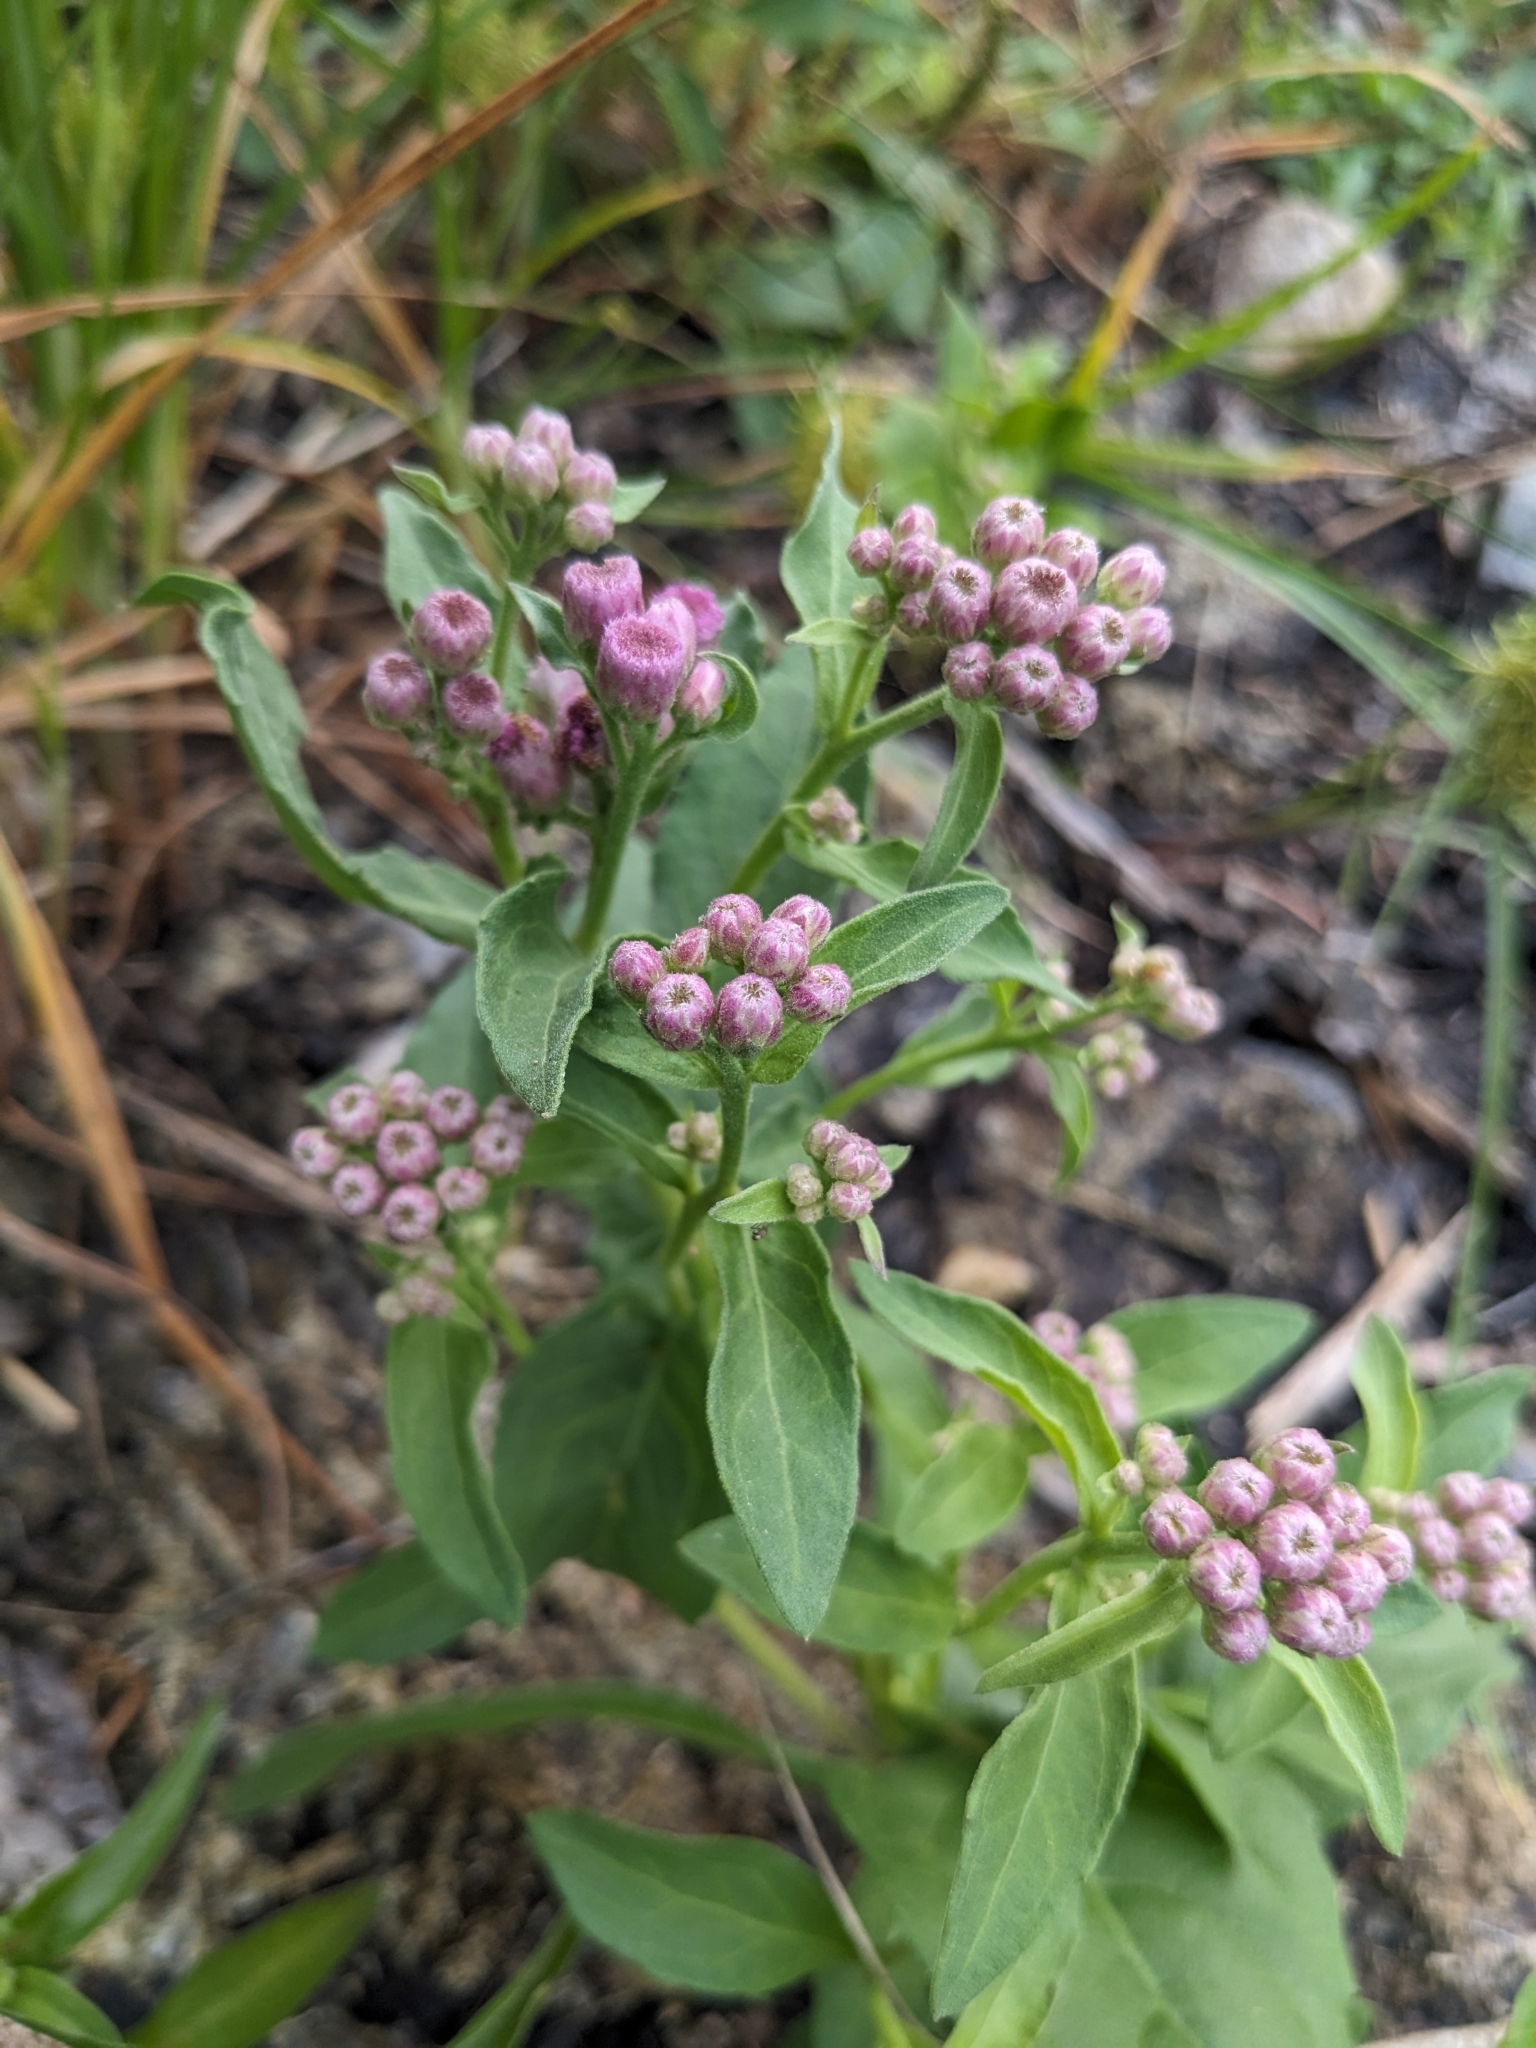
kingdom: Plantae
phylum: Tracheophyta
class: Magnoliopsida
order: Asterales
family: Asteraceae
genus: Pluchea
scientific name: Pluchea odorata
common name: Saltmarsh fleabane
